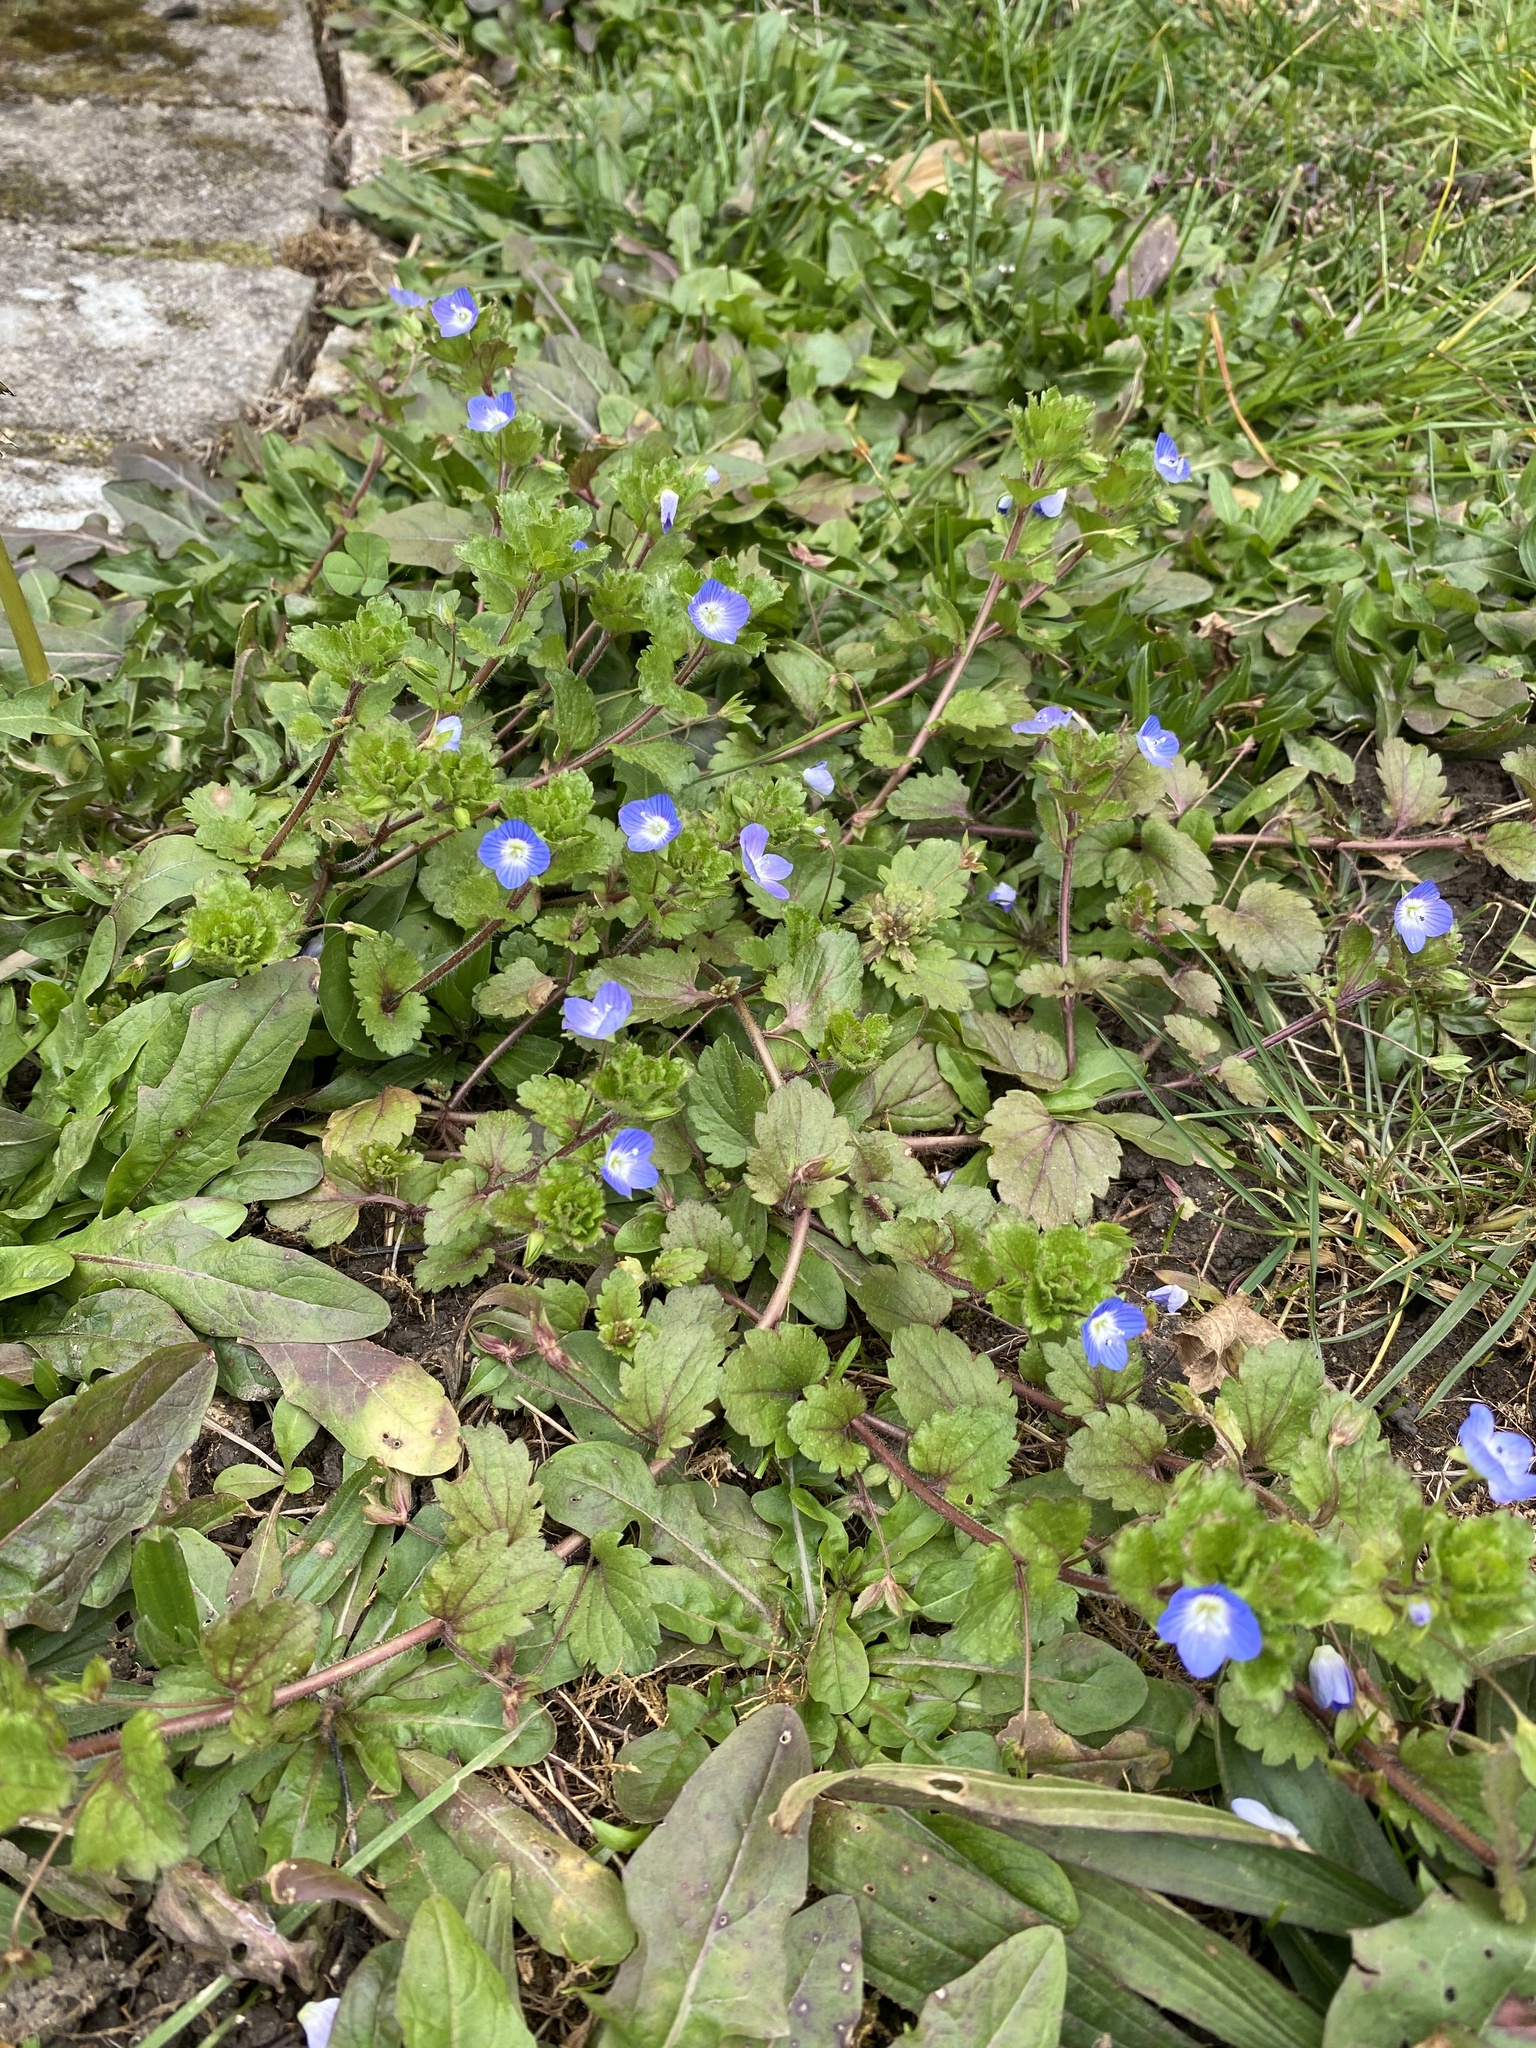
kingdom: Plantae
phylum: Tracheophyta
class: Magnoliopsida
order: Lamiales
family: Plantaginaceae
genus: Veronica
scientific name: Veronica persica
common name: Common field-speedwell
